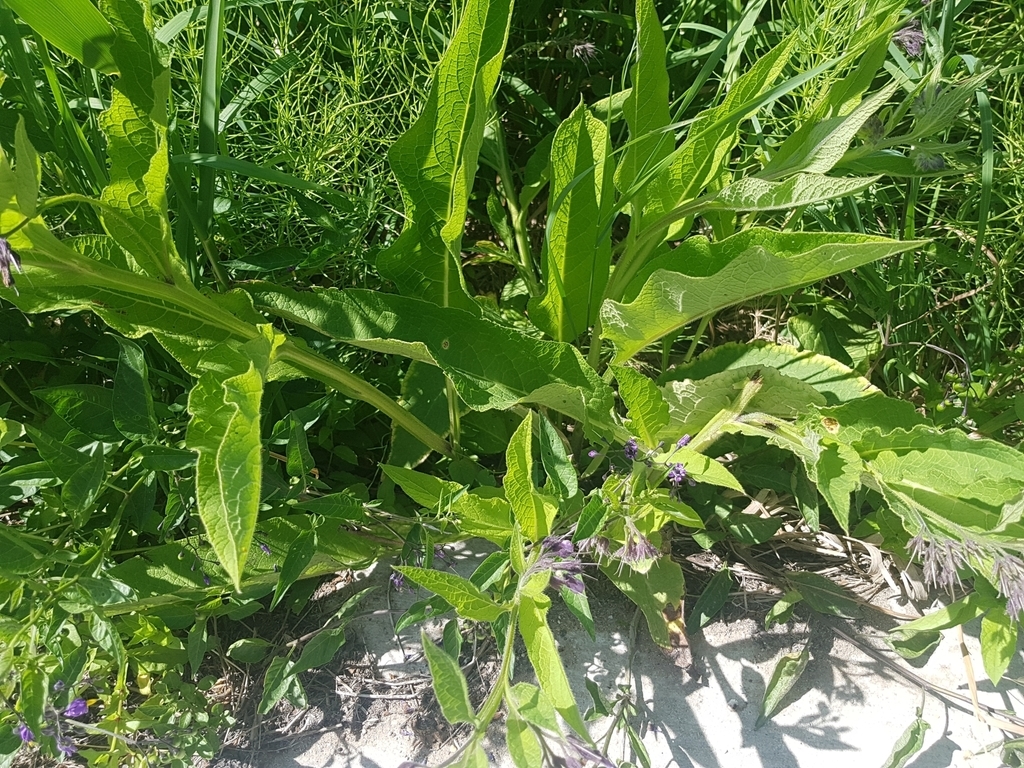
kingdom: Plantae
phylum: Tracheophyta
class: Magnoliopsida
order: Boraginales
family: Boraginaceae
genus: Symphytum
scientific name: Symphytum officinale
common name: Common comfrey
